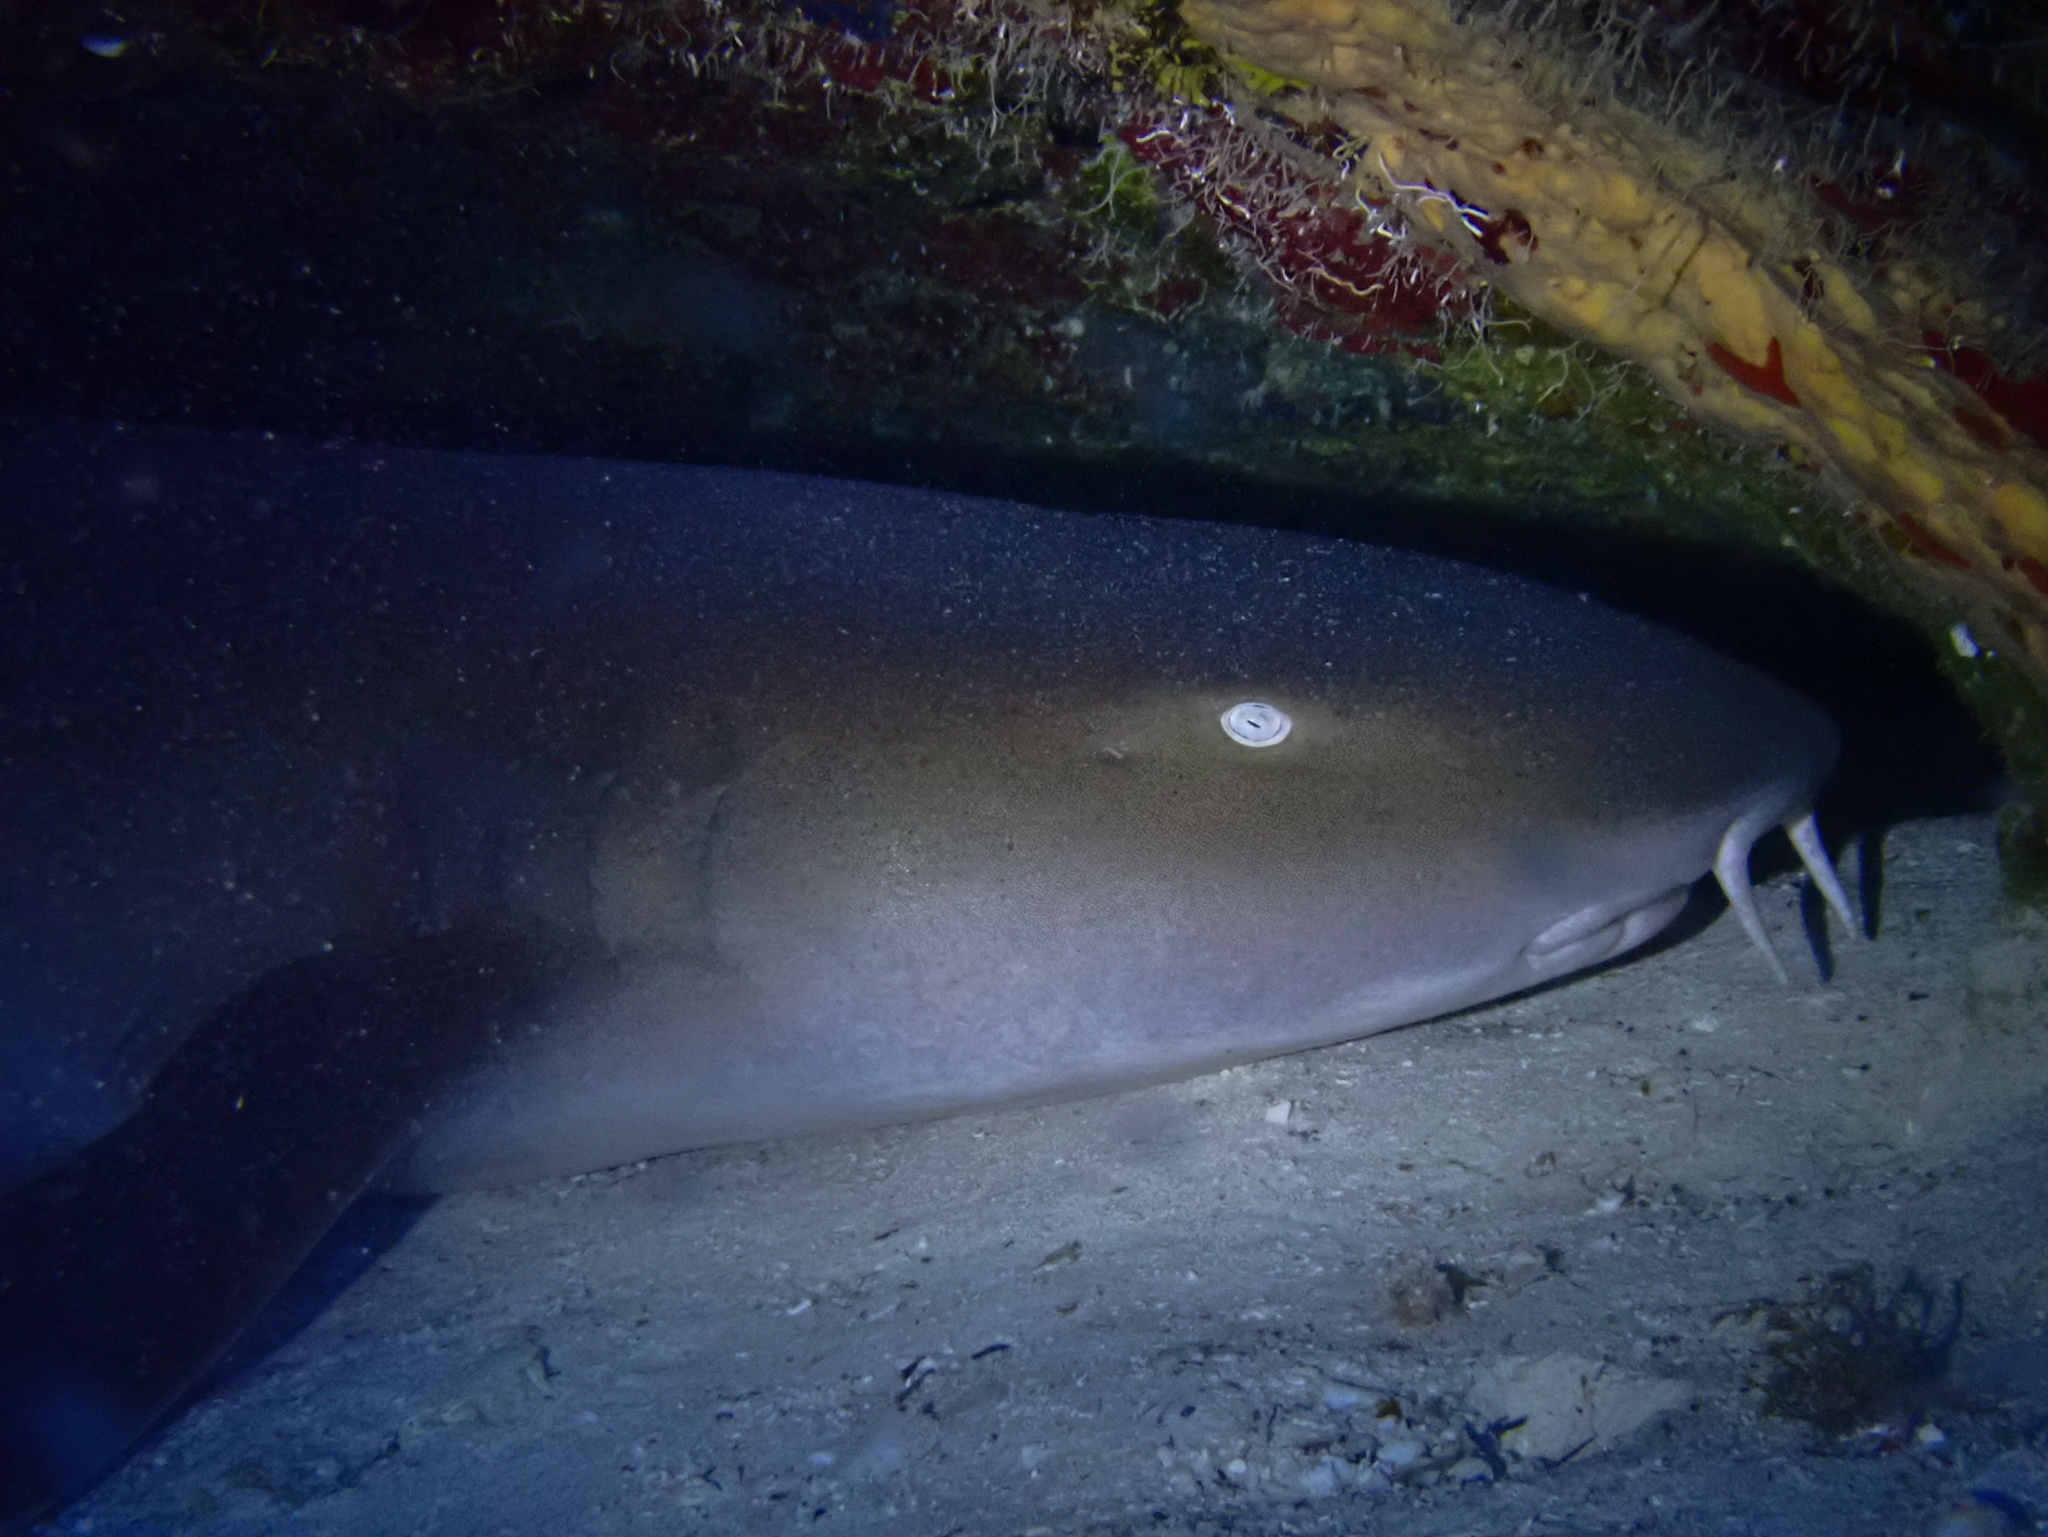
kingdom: Animalia
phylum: Chordata
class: Elasmobranchii
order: Orectolobiformes
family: Ginglymostomatidae
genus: Ginglymostoma
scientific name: Ginglymostoma cirratum
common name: Nurse shark
